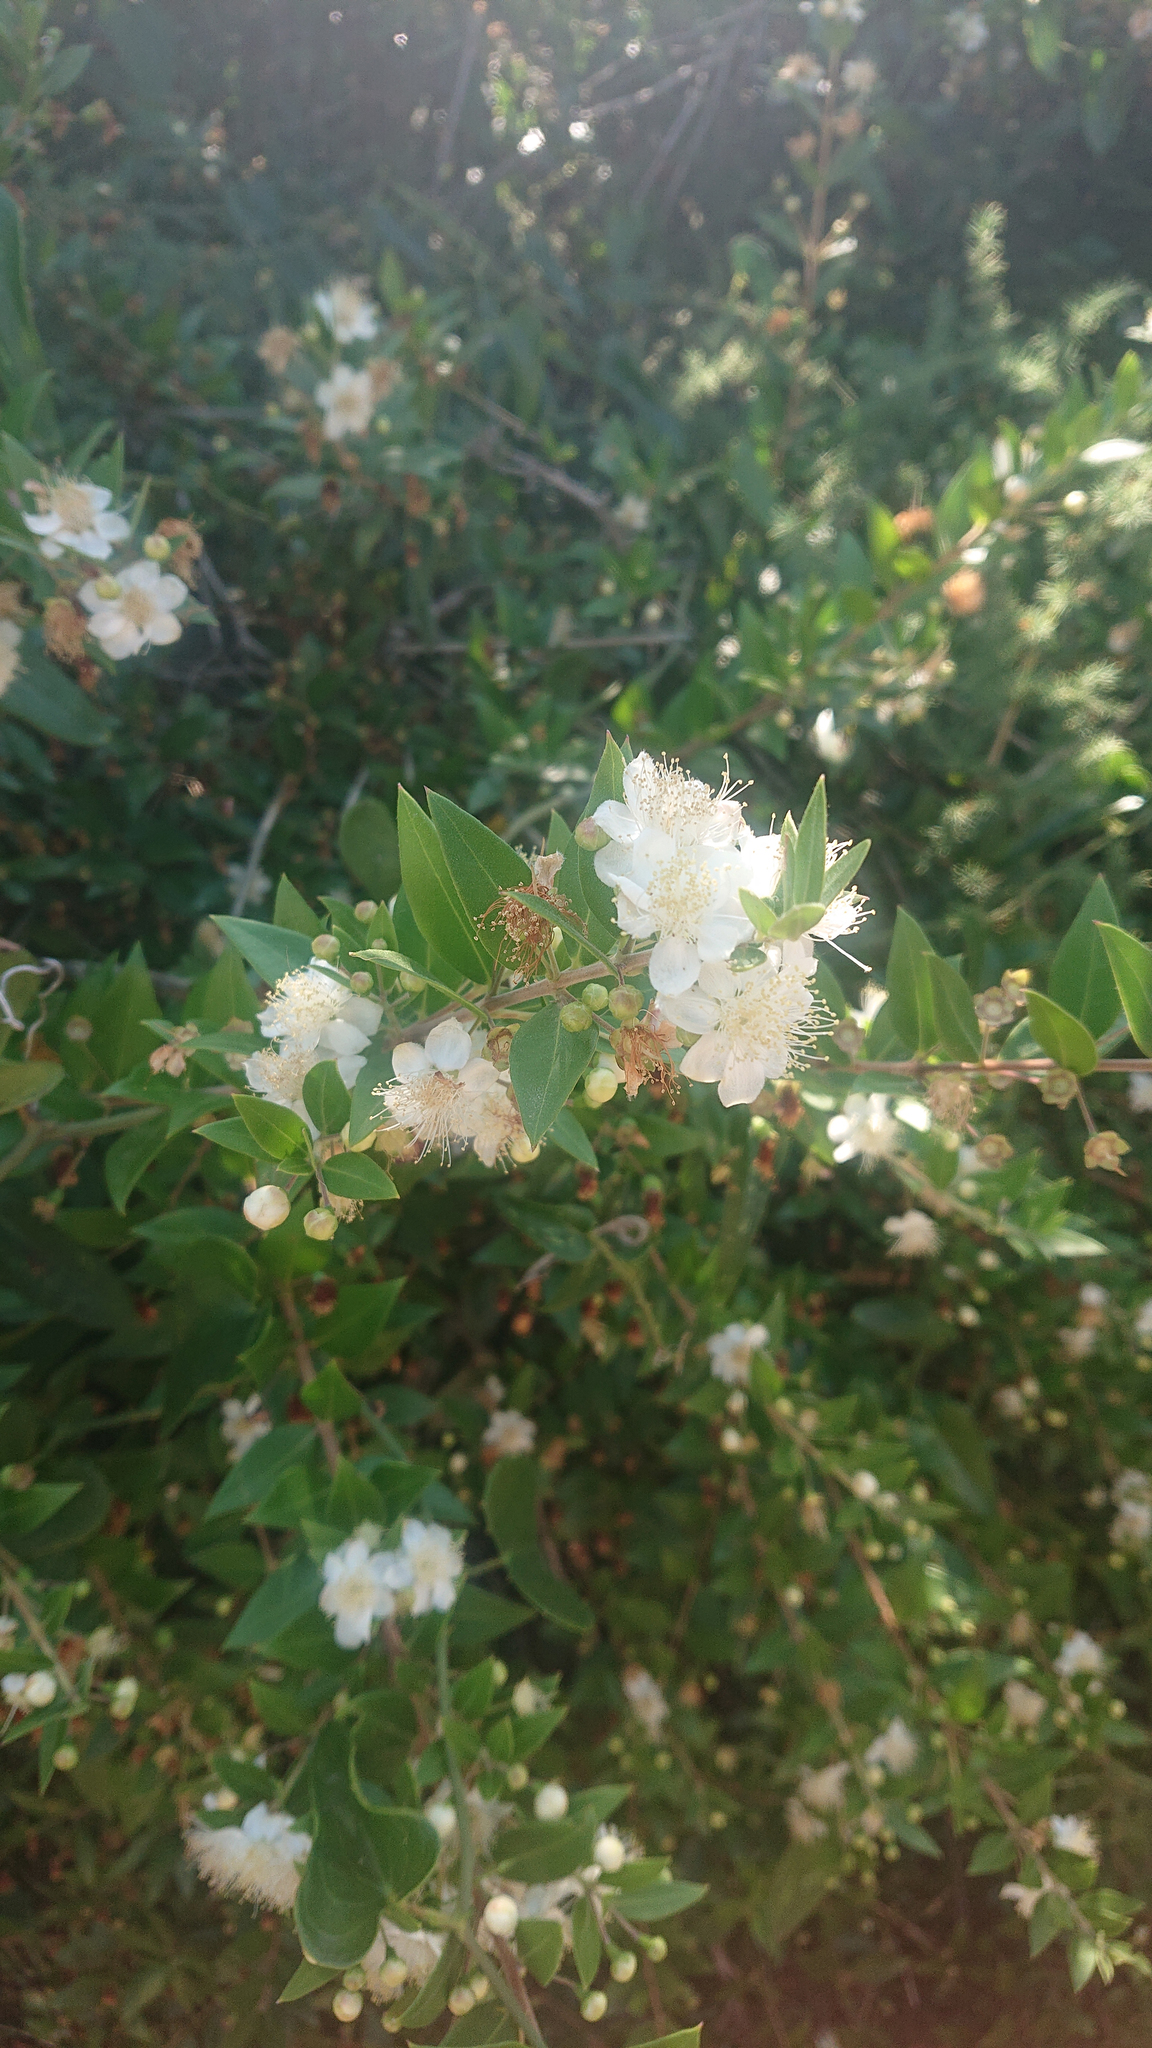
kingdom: Plantae
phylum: Tracheophyta
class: Magnoliopsida
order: Myrtales
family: Myrtaceae
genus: Myrtus
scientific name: Myrtus communis
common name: Myrtle
